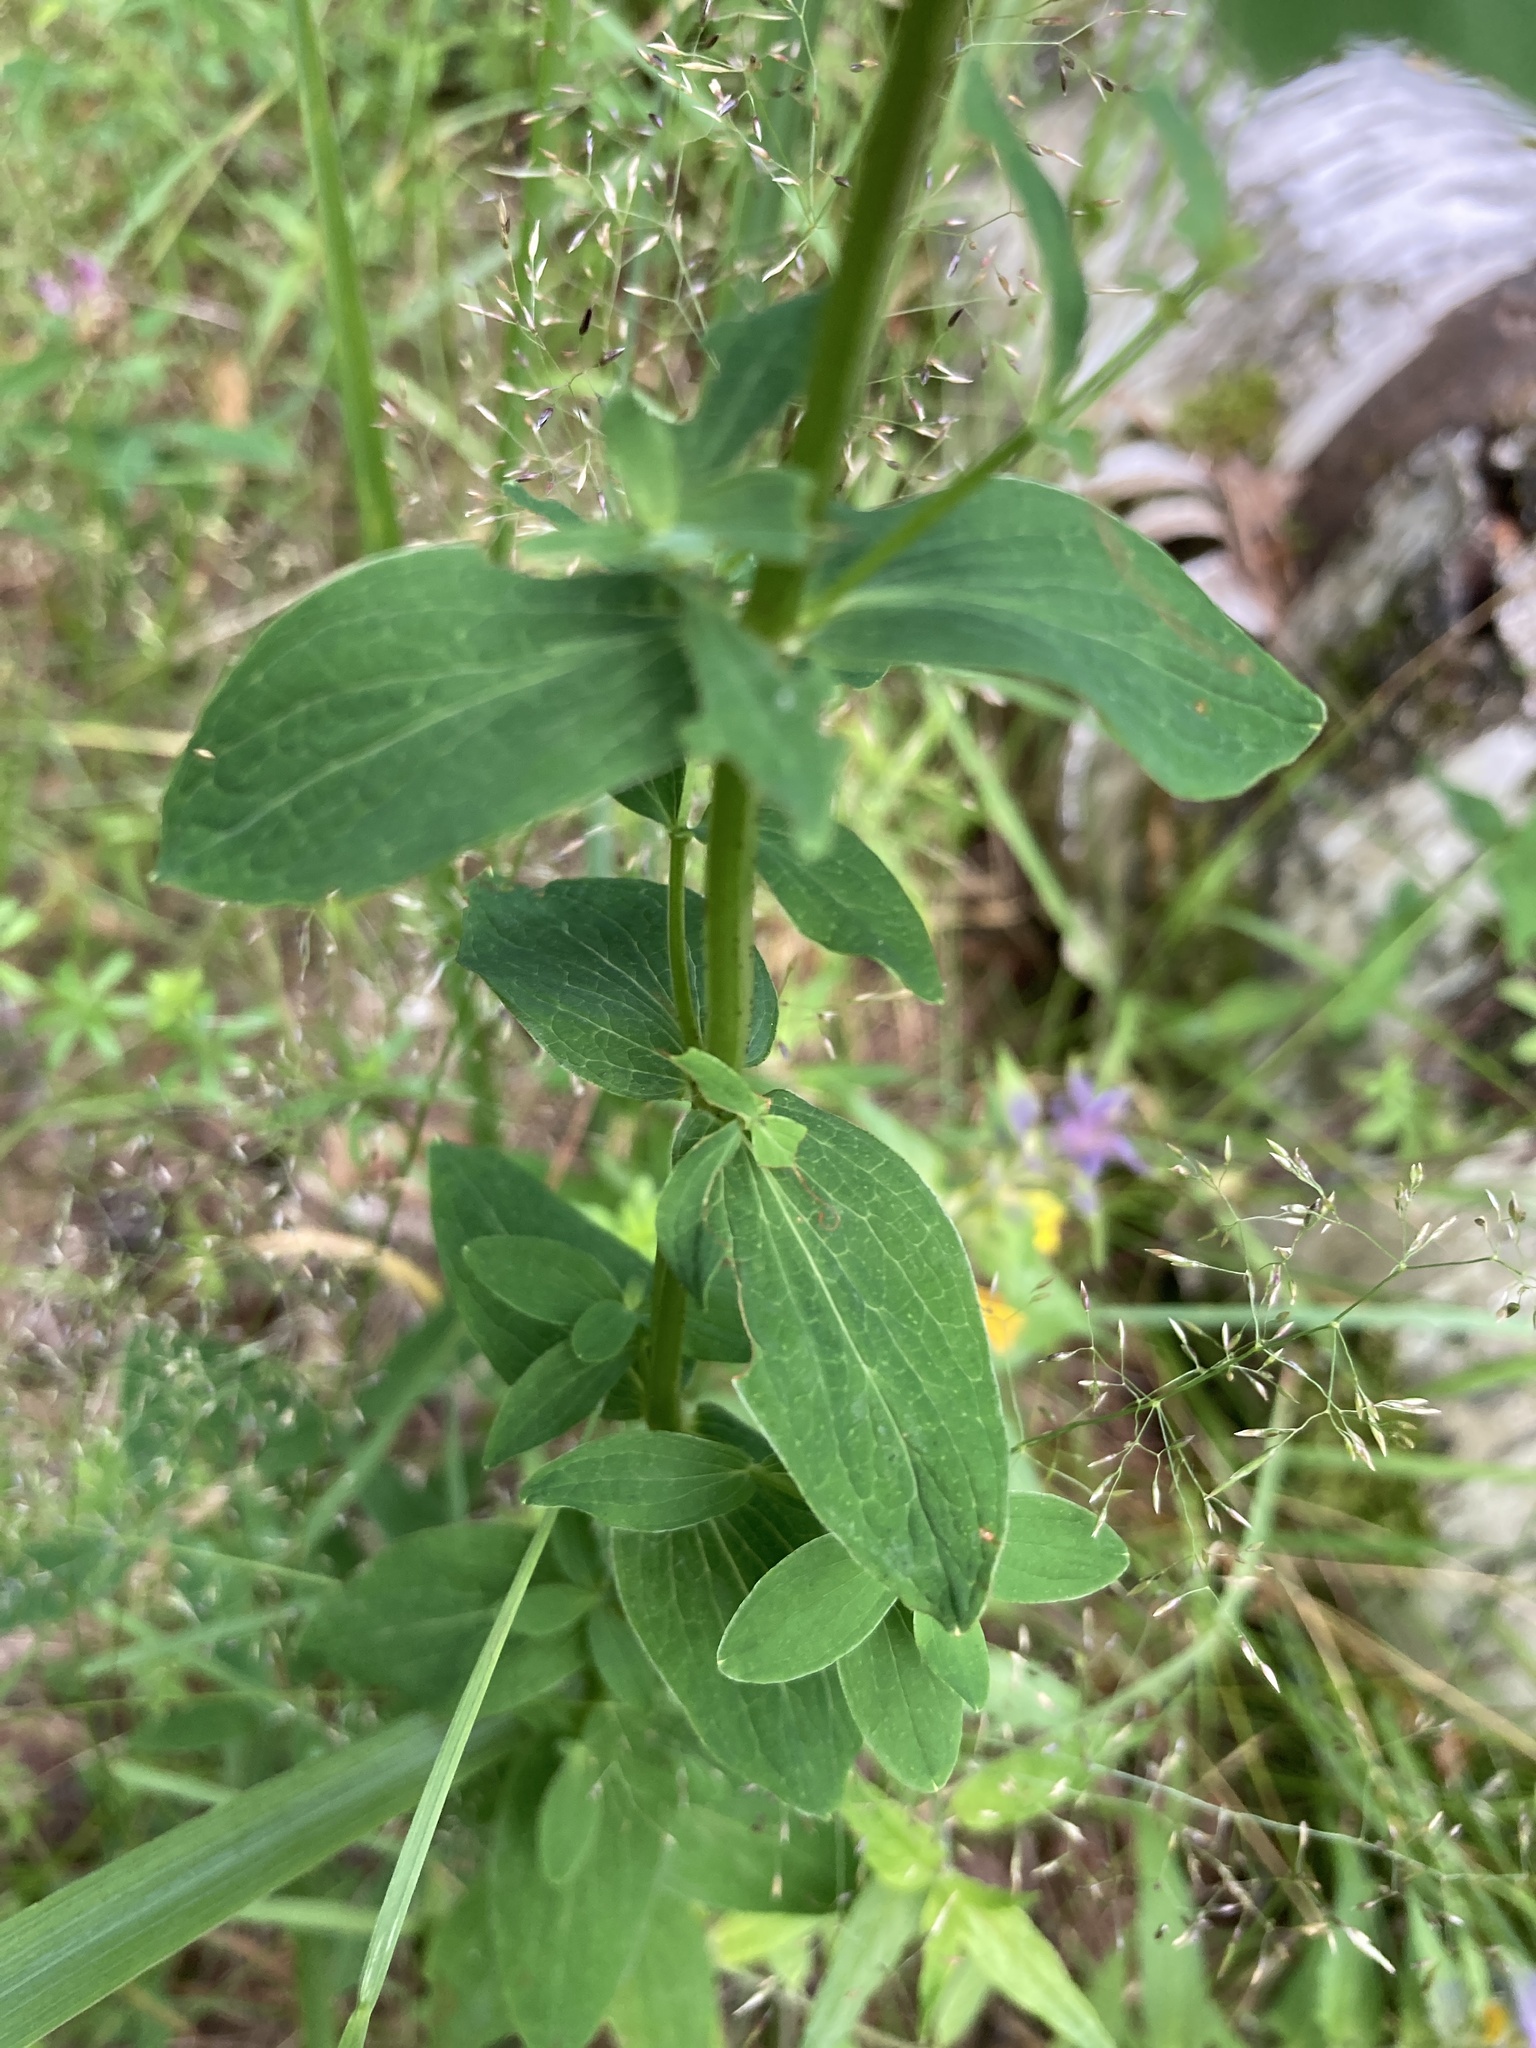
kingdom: Plantae
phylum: Tracheophyta
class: Magnoliopsida
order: Malpighiales
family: Hypericaceae
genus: Hypericum
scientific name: Hypericum maculatum
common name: Imperforate st. john's-wort
